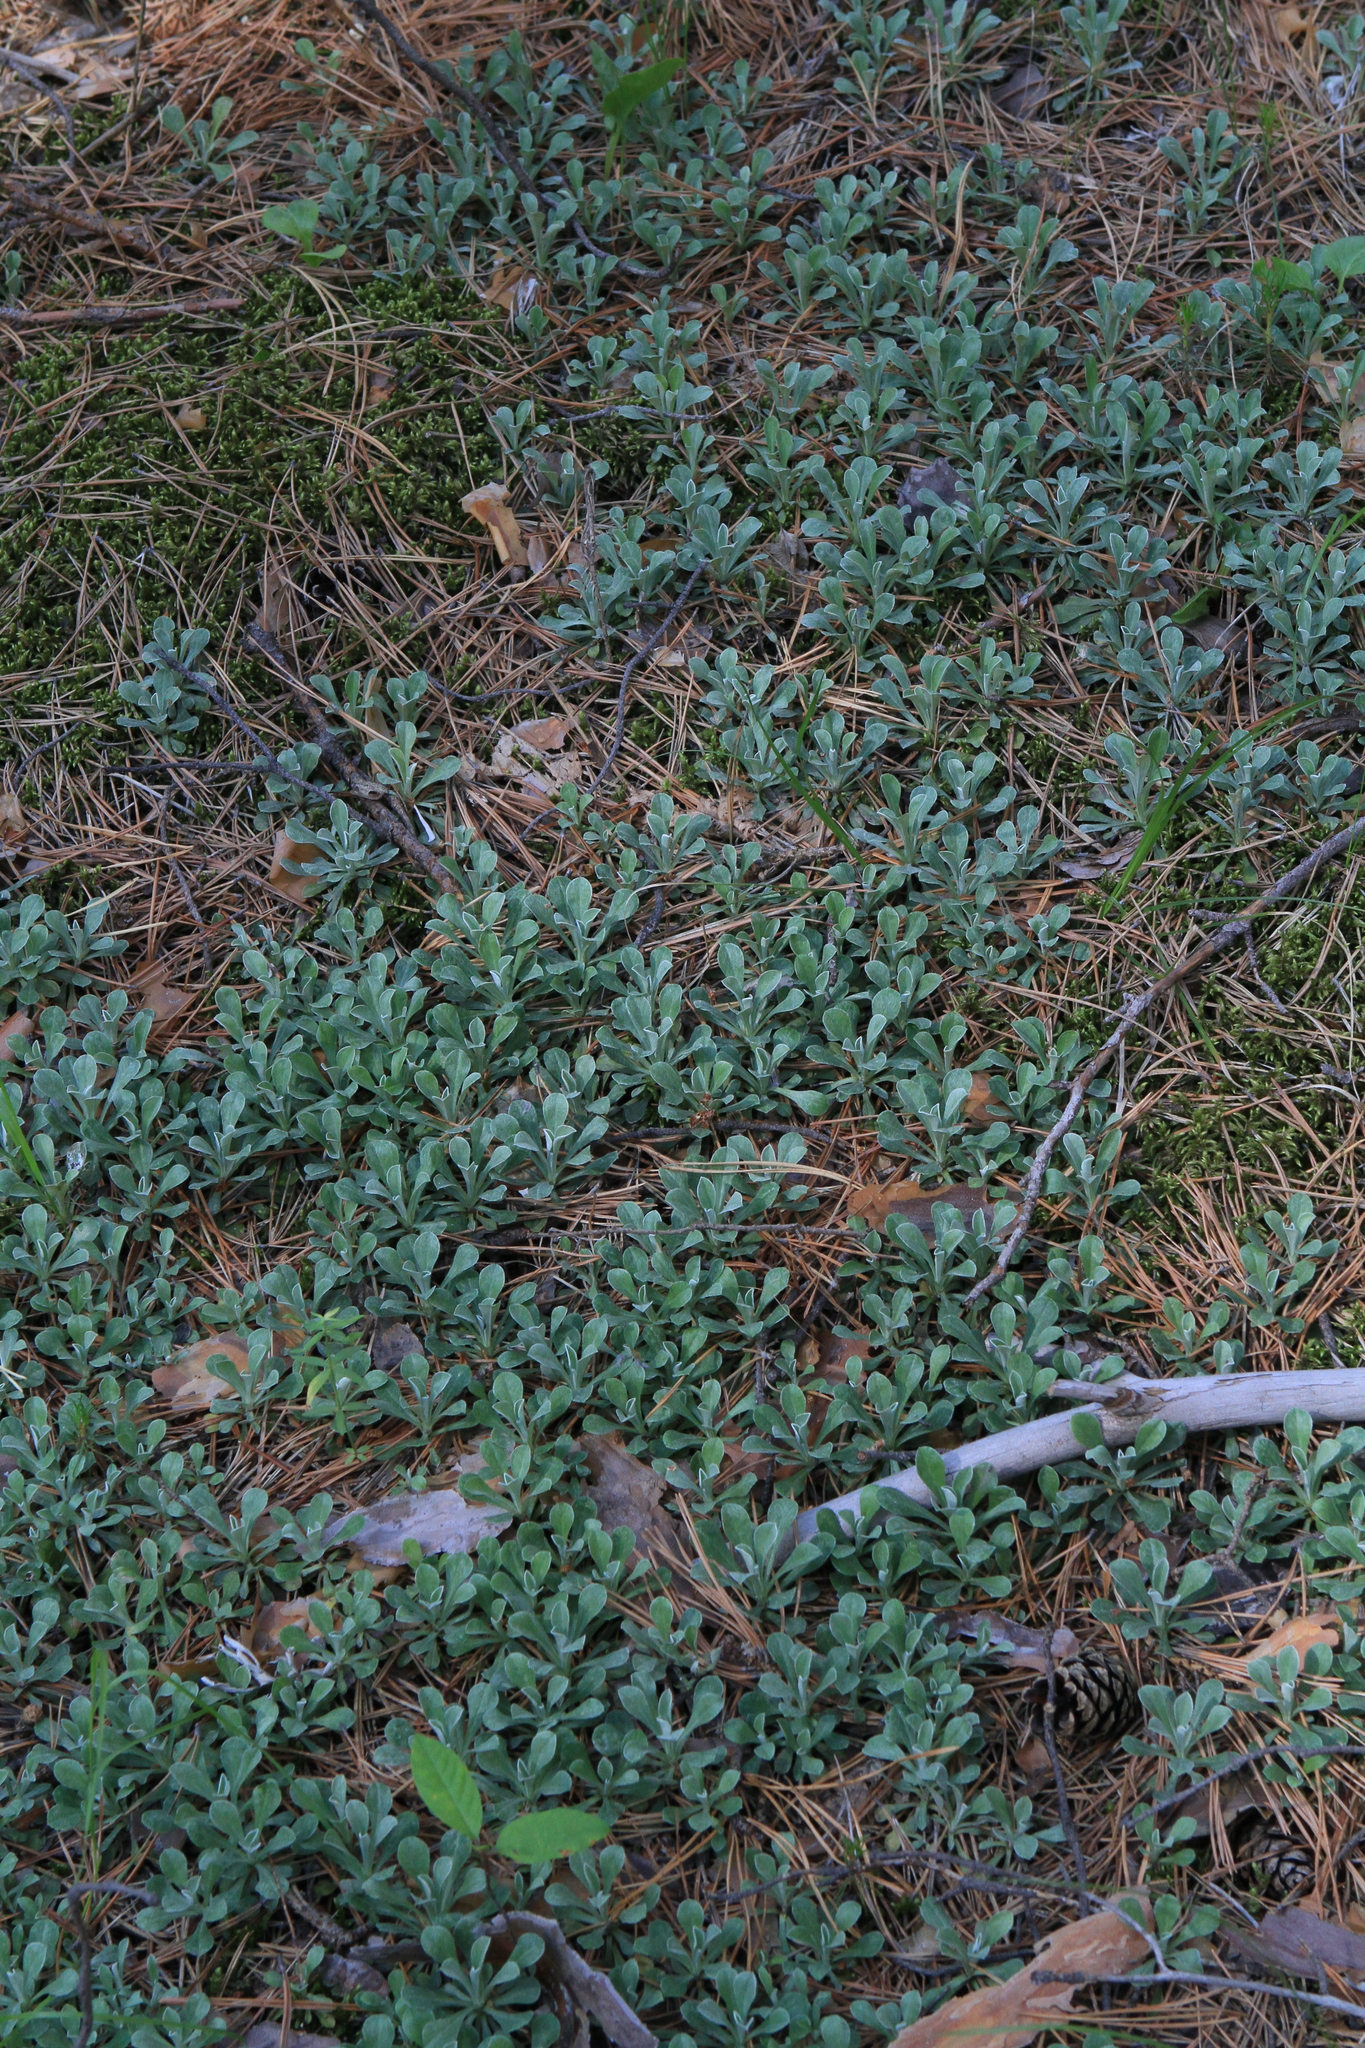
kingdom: Plantae
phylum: Tracheophyta
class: Magnoliopsida
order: Asterales
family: Asteraceae
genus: Antennaria
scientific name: Antennaria dioica
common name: Mountain everlasting
